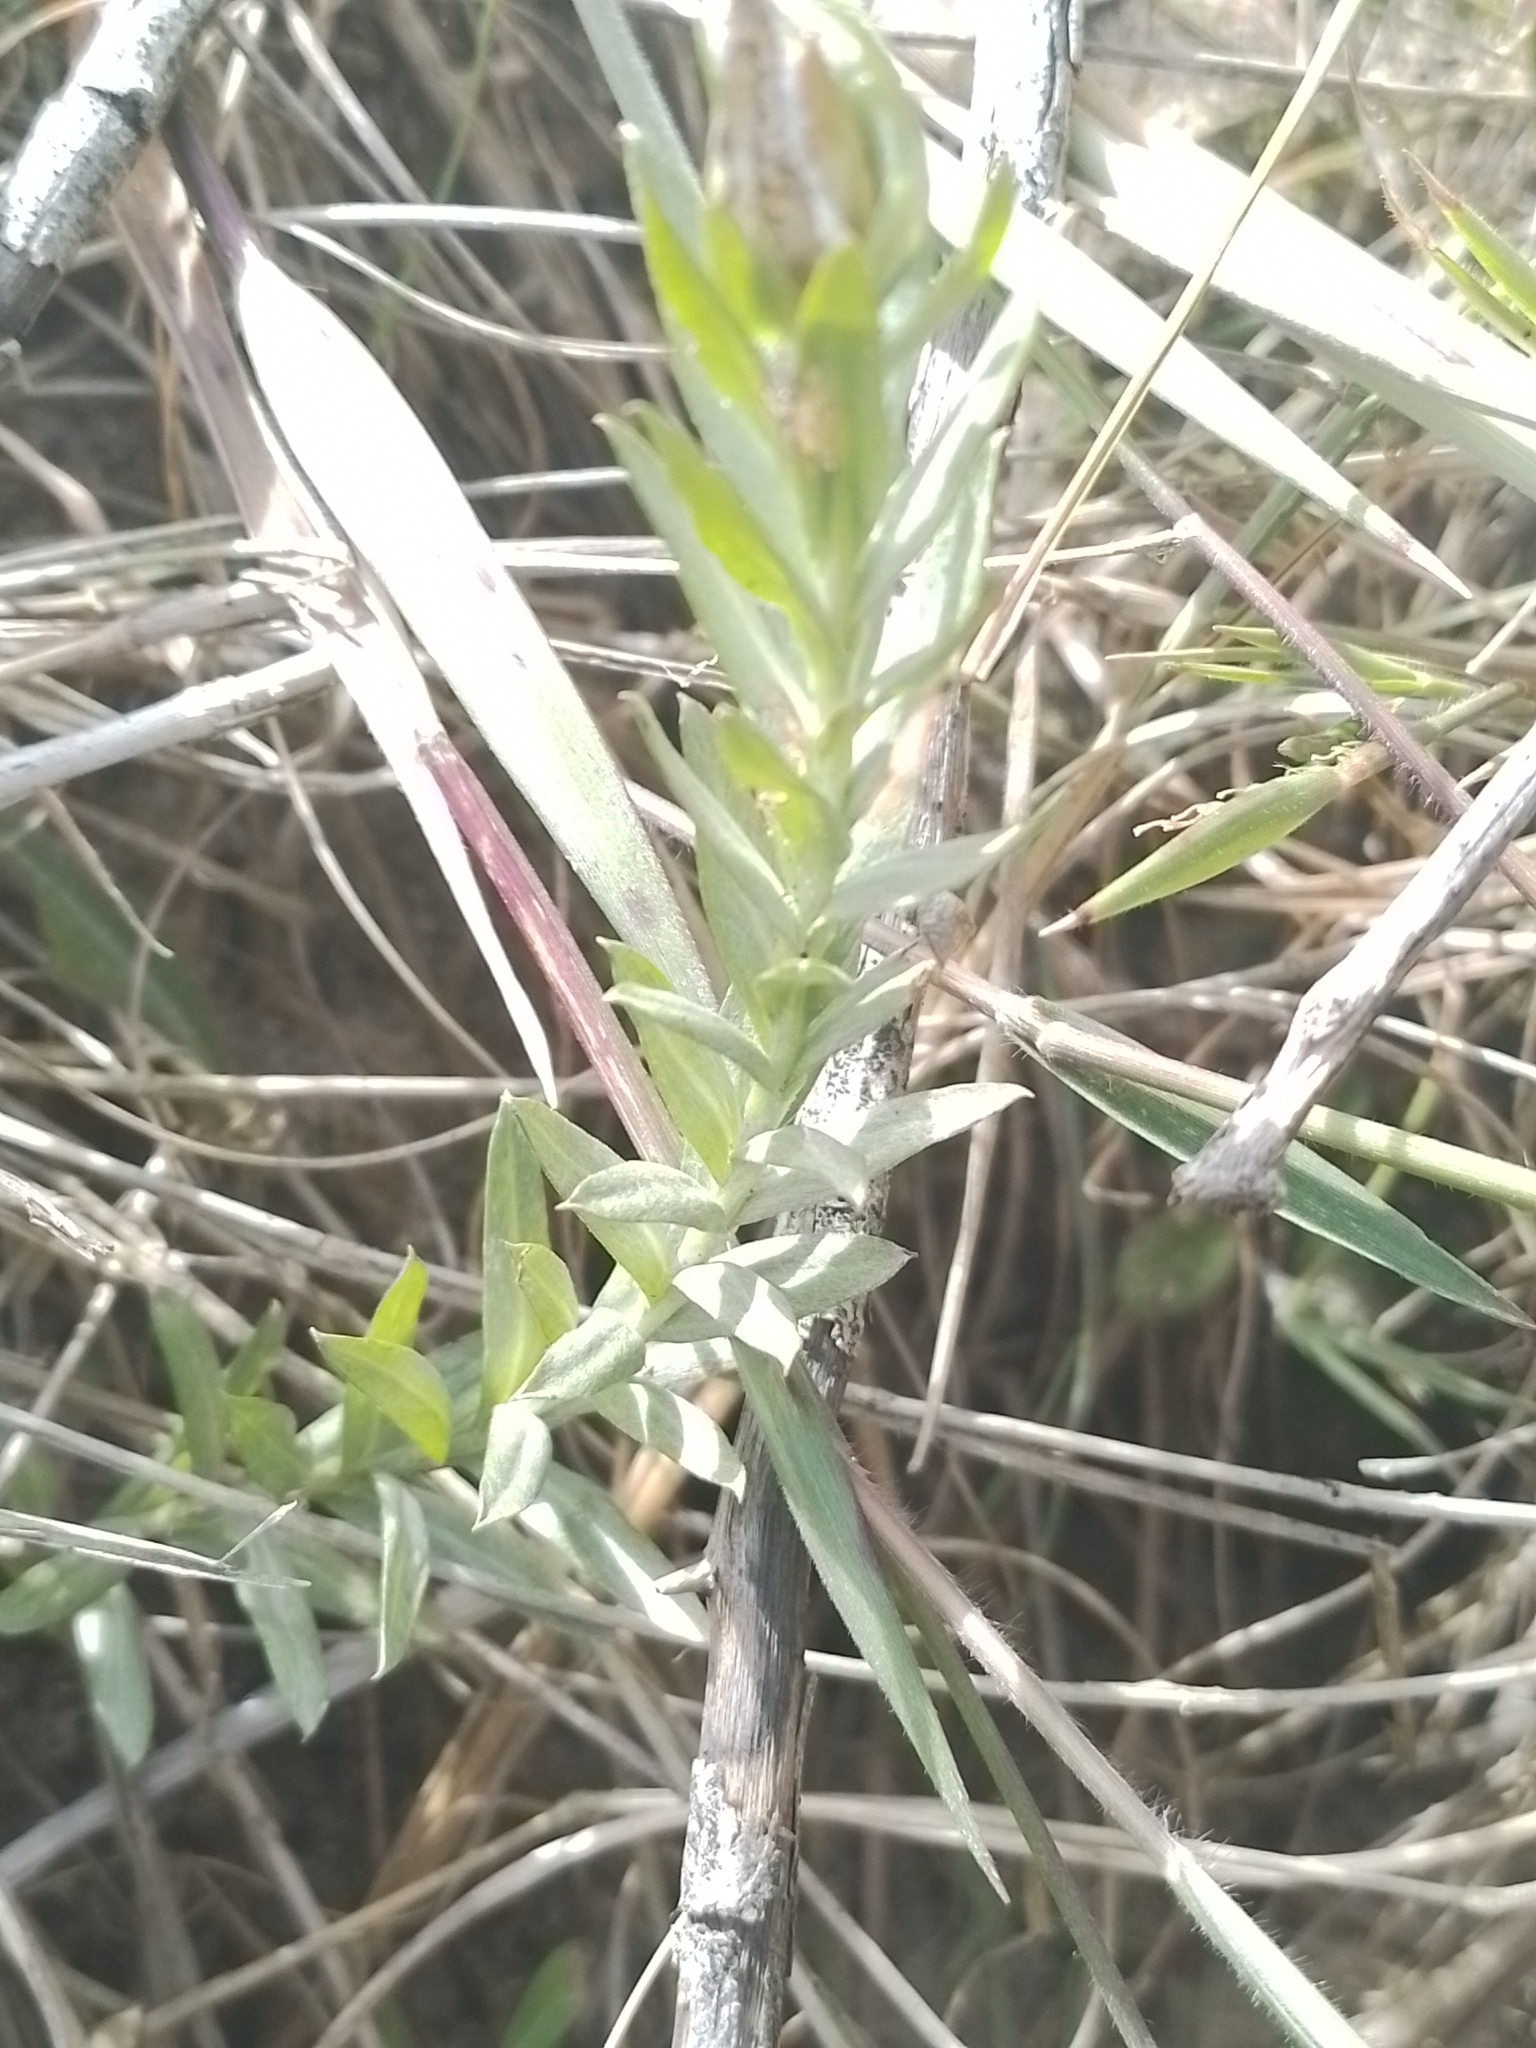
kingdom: Plantae
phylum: Tracheophyta
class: Magnoliopsida
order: Asterales
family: Asteraceae
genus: Lucilia
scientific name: Lucilia nitens
